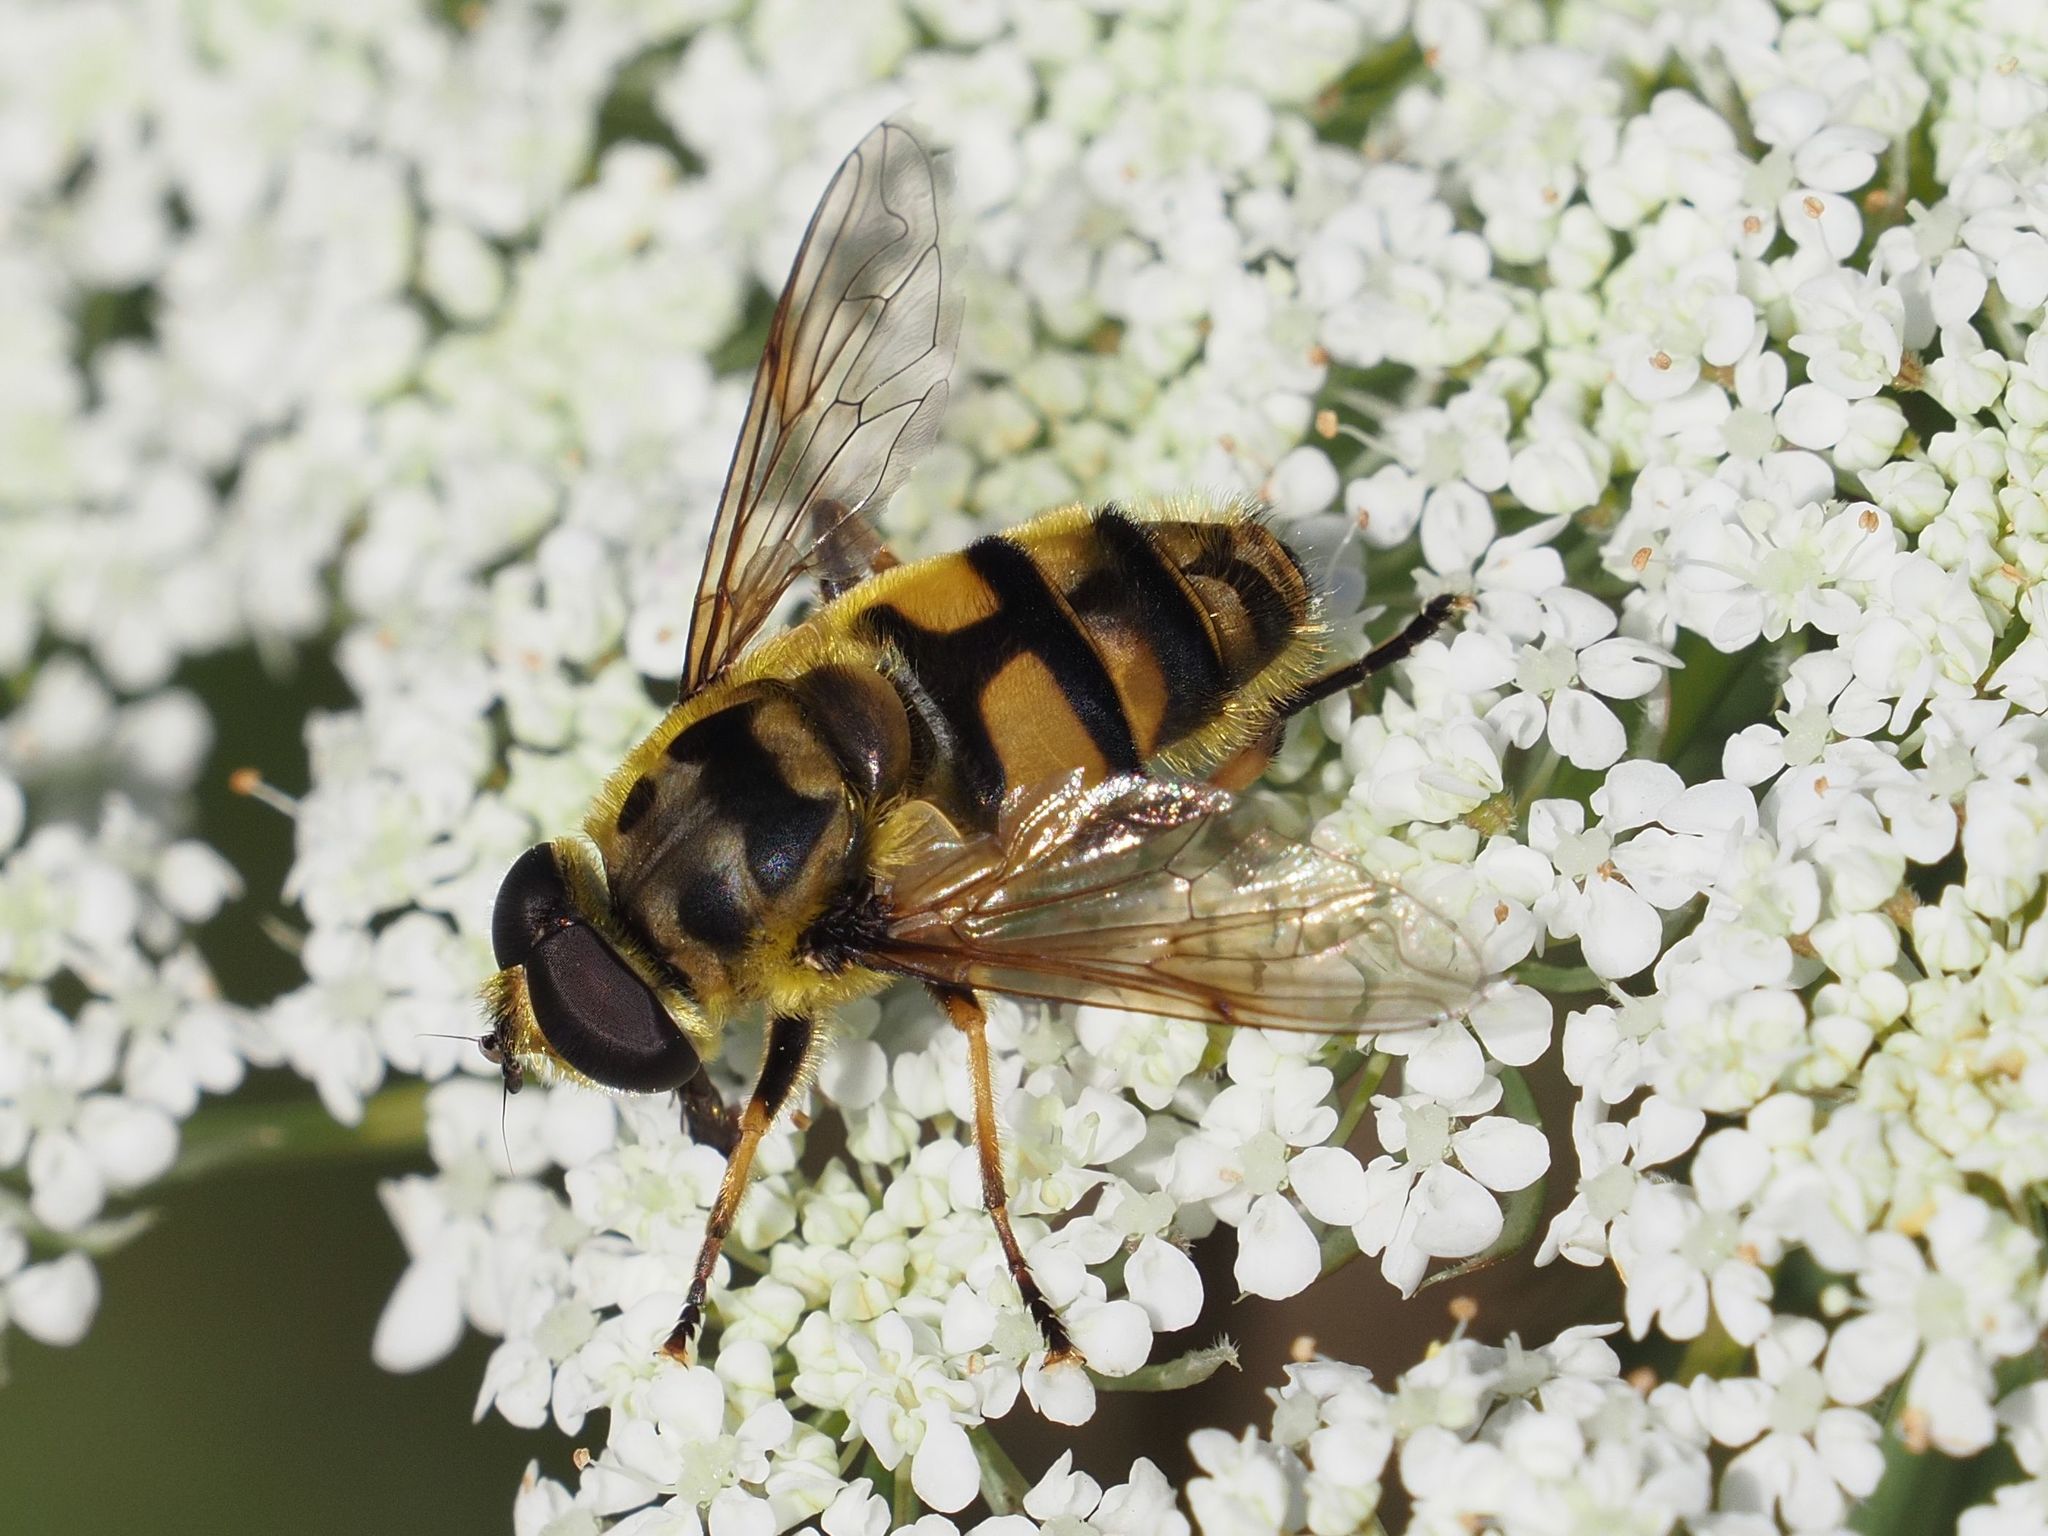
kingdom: Animalia
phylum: Arthropoda
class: Insecta
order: Diptera
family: Syrphidae
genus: Myathropa
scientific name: Myathropa florea
